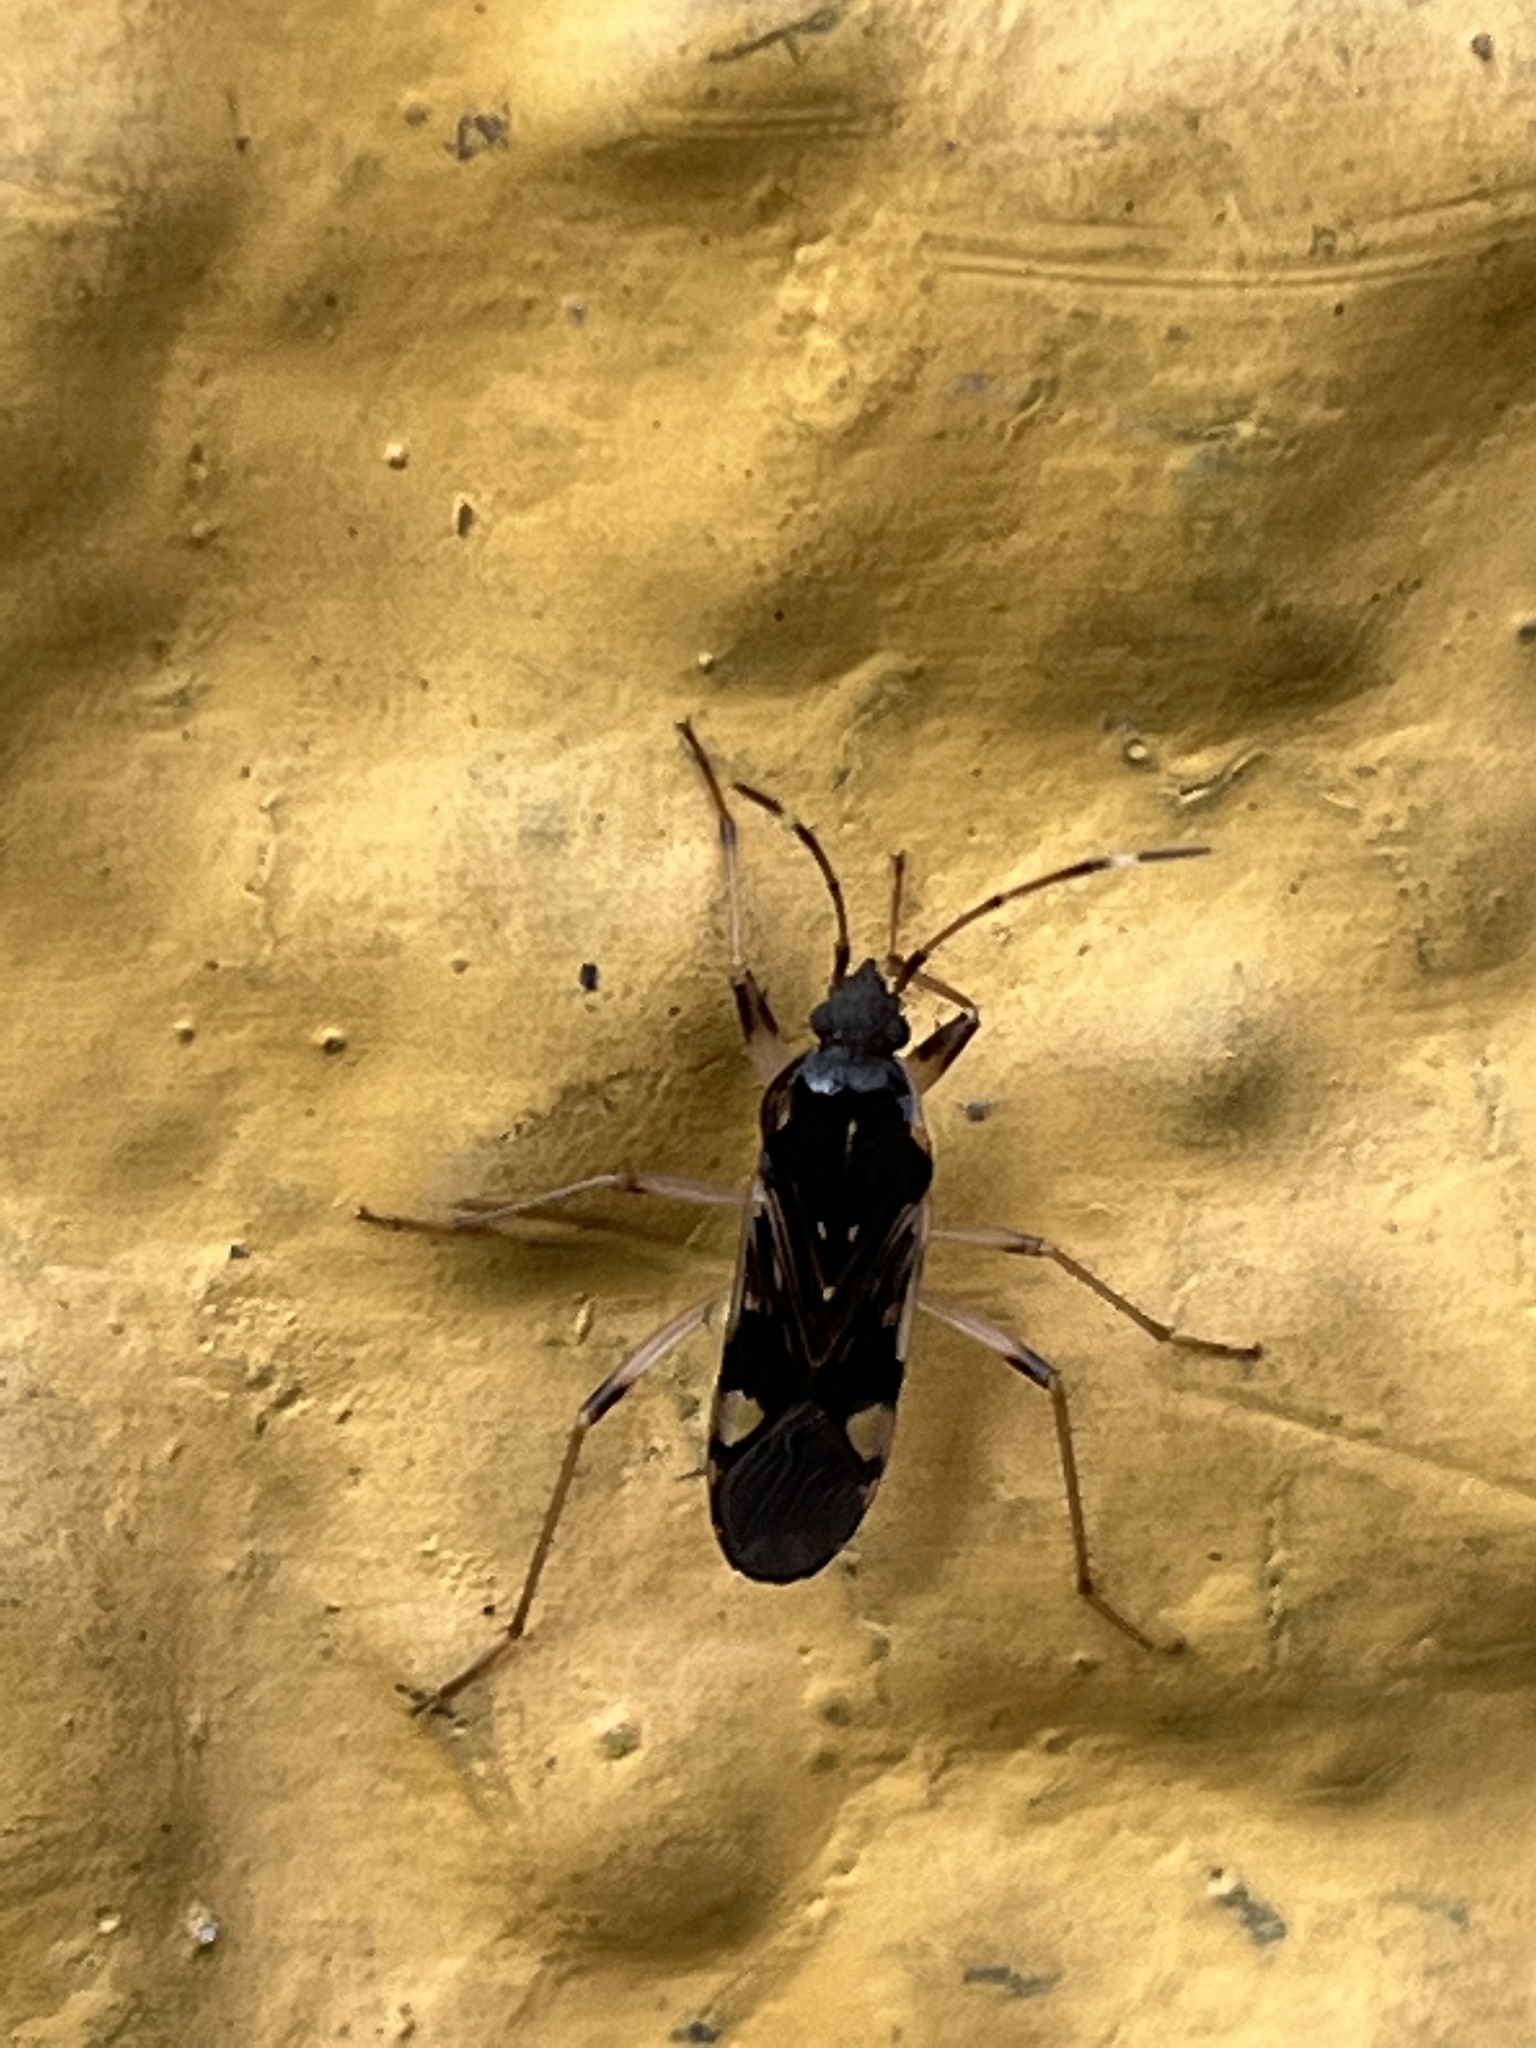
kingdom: Animalia
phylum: Arthropoda
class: Insecta
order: Hemiptera
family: Rhyparochromidae
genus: Dieuches
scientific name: Dieuches armatipes
